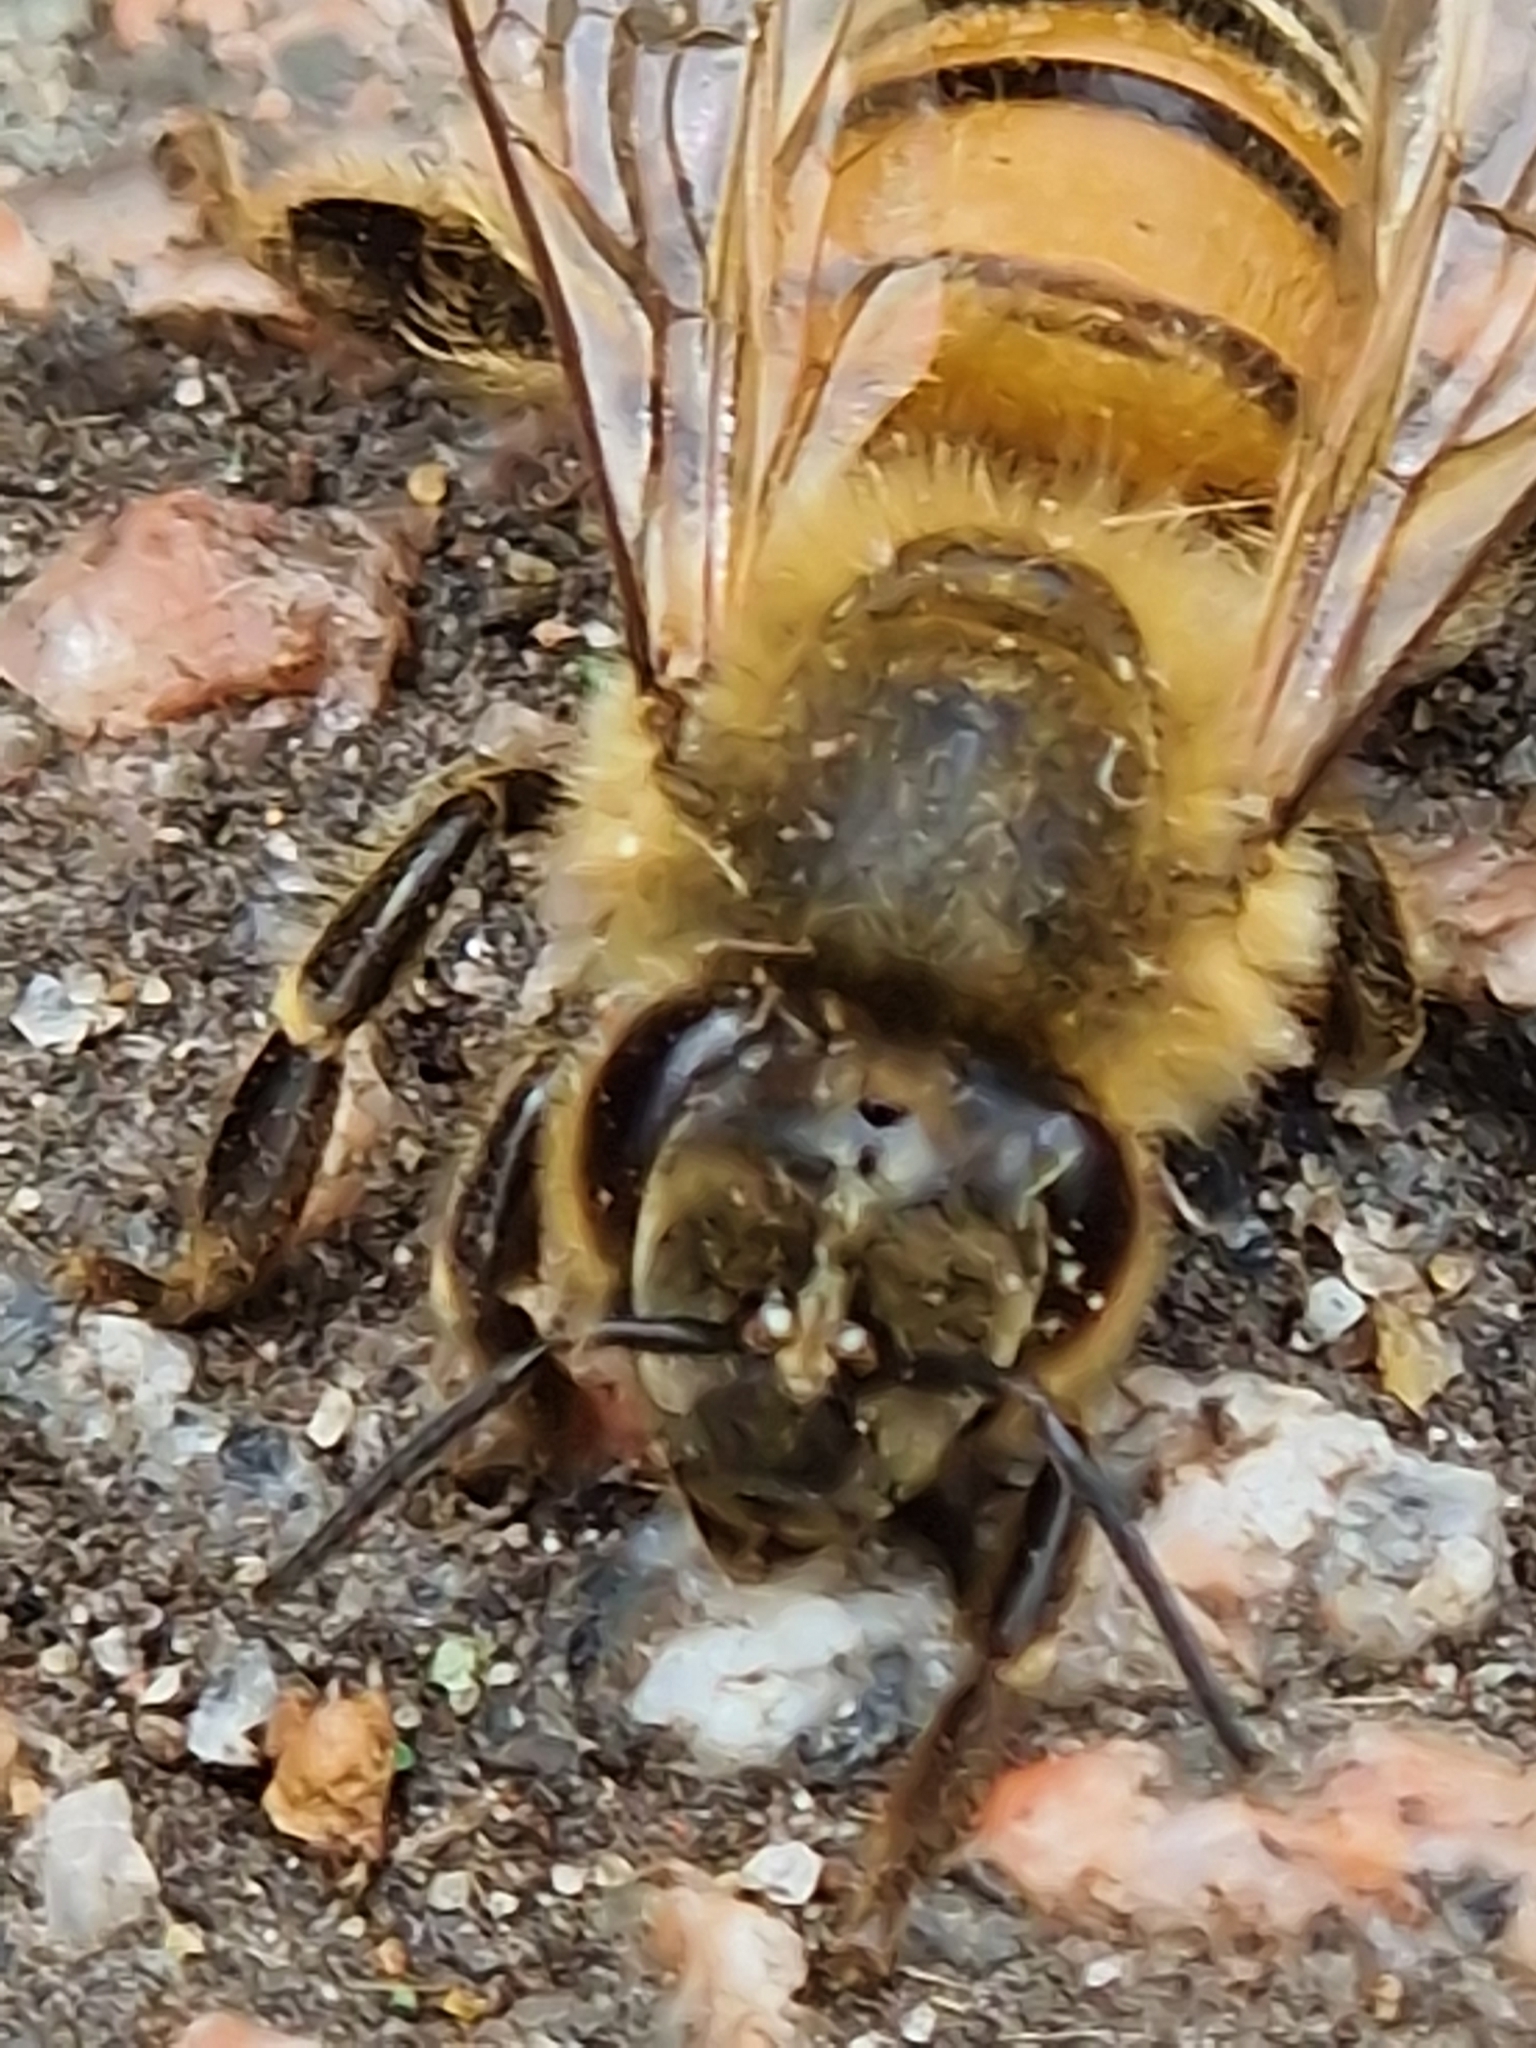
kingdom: Animalia
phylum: Arthropoda
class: Insecta
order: Hymenoptera
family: Apidae
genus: Apis
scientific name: Apis mellifera
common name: Honey bee
